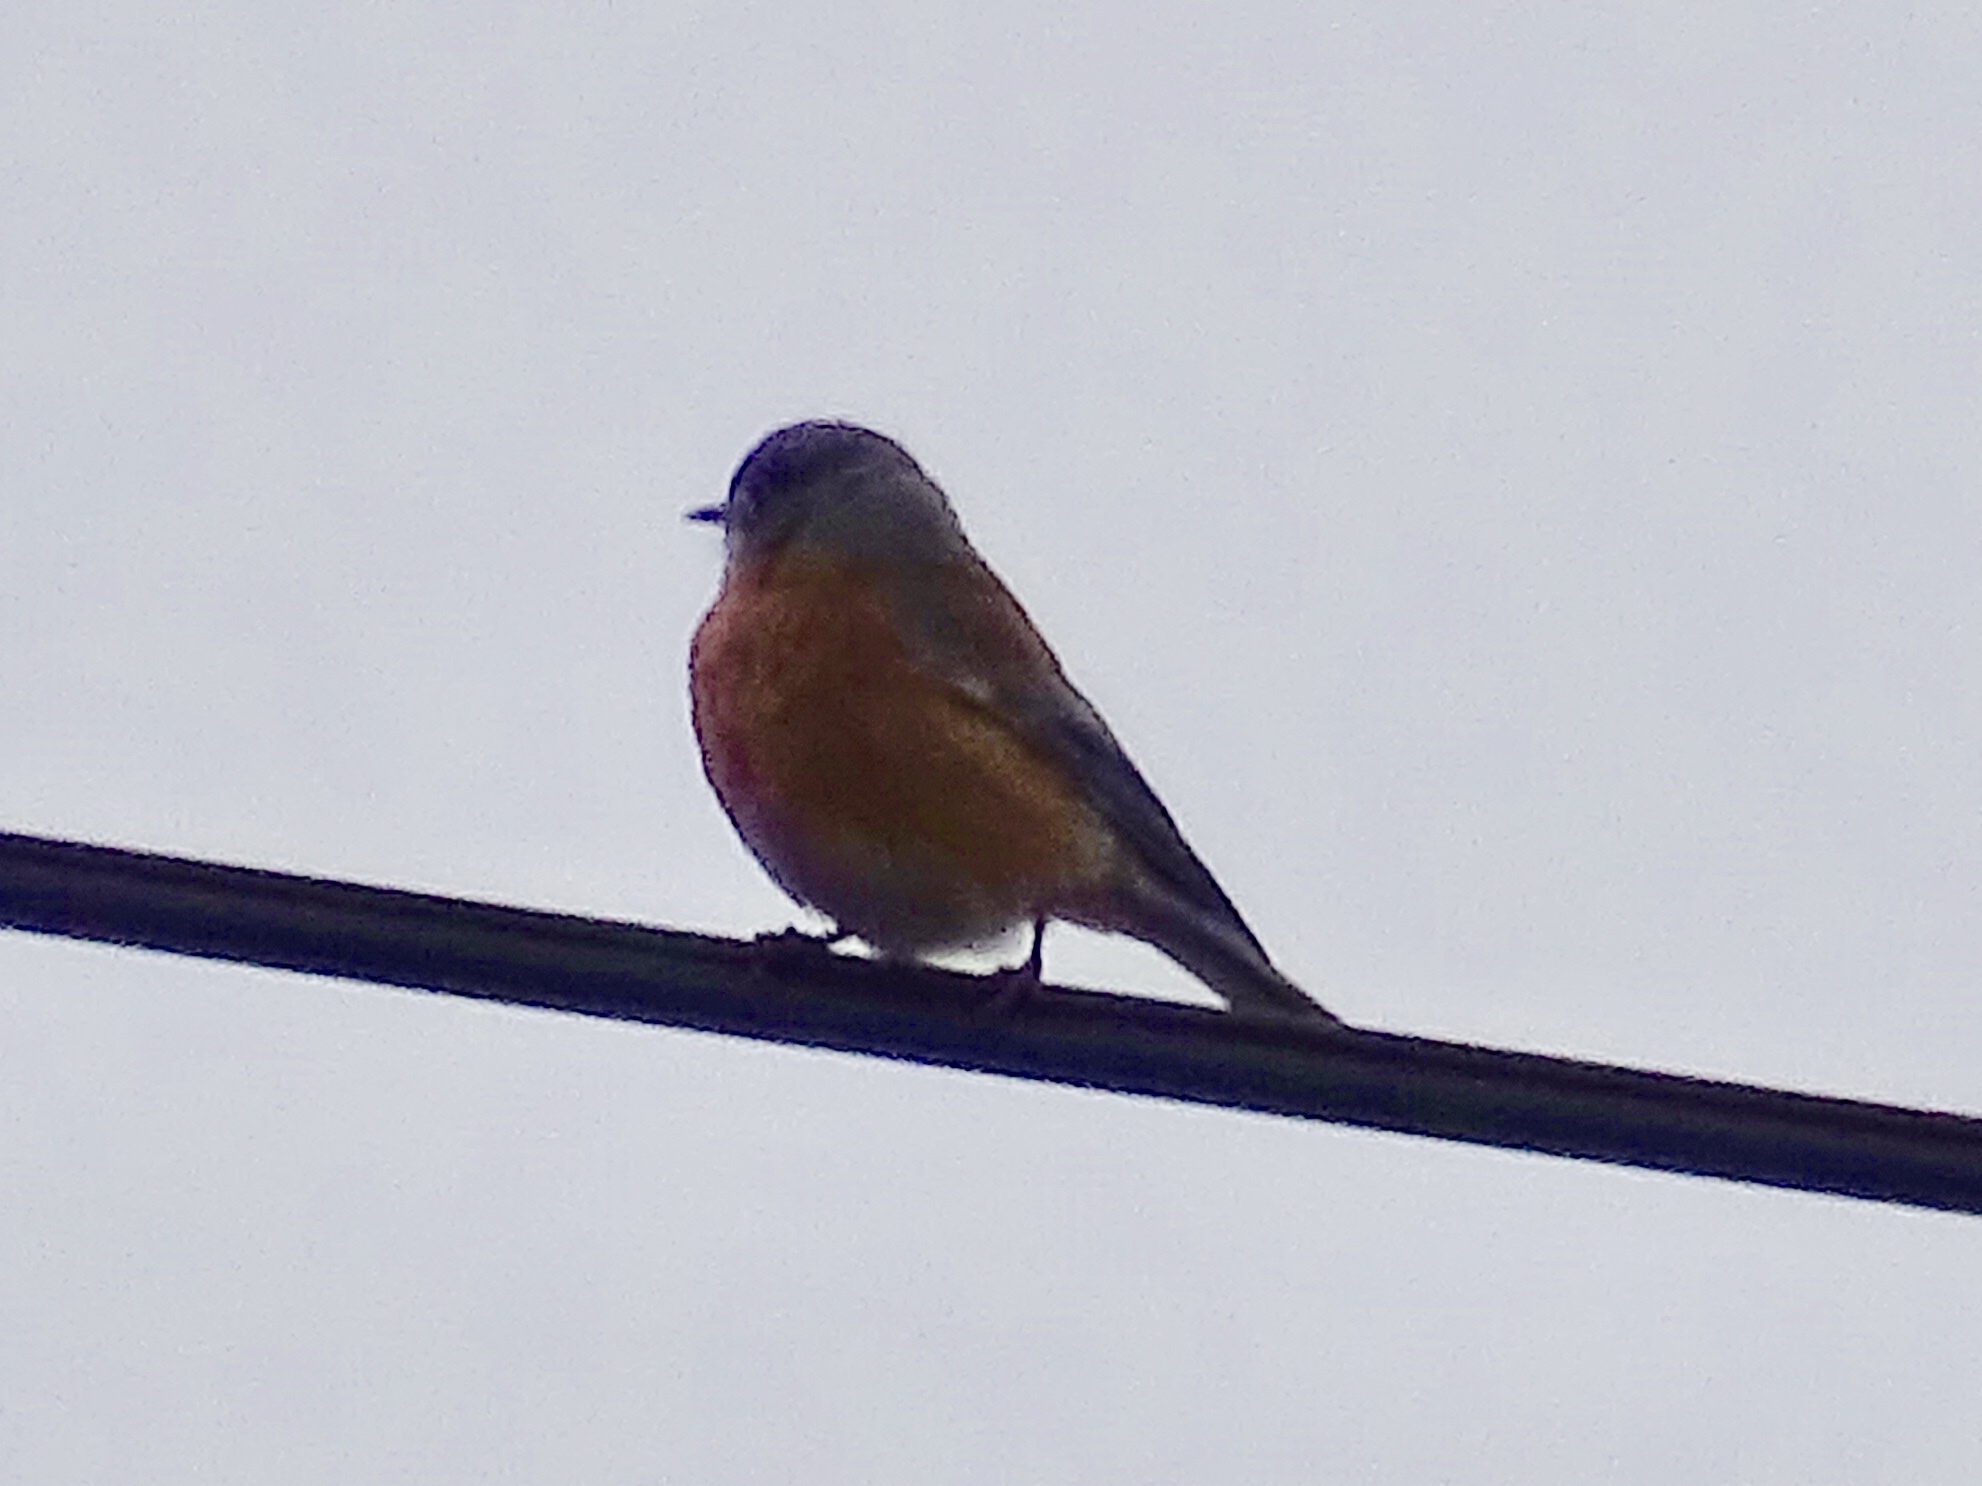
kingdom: Animalia
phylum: Chordata
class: Aves
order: Passeriformes
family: Turdidae
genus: Sialia
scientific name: Sialia mexicana
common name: Western bluebird
